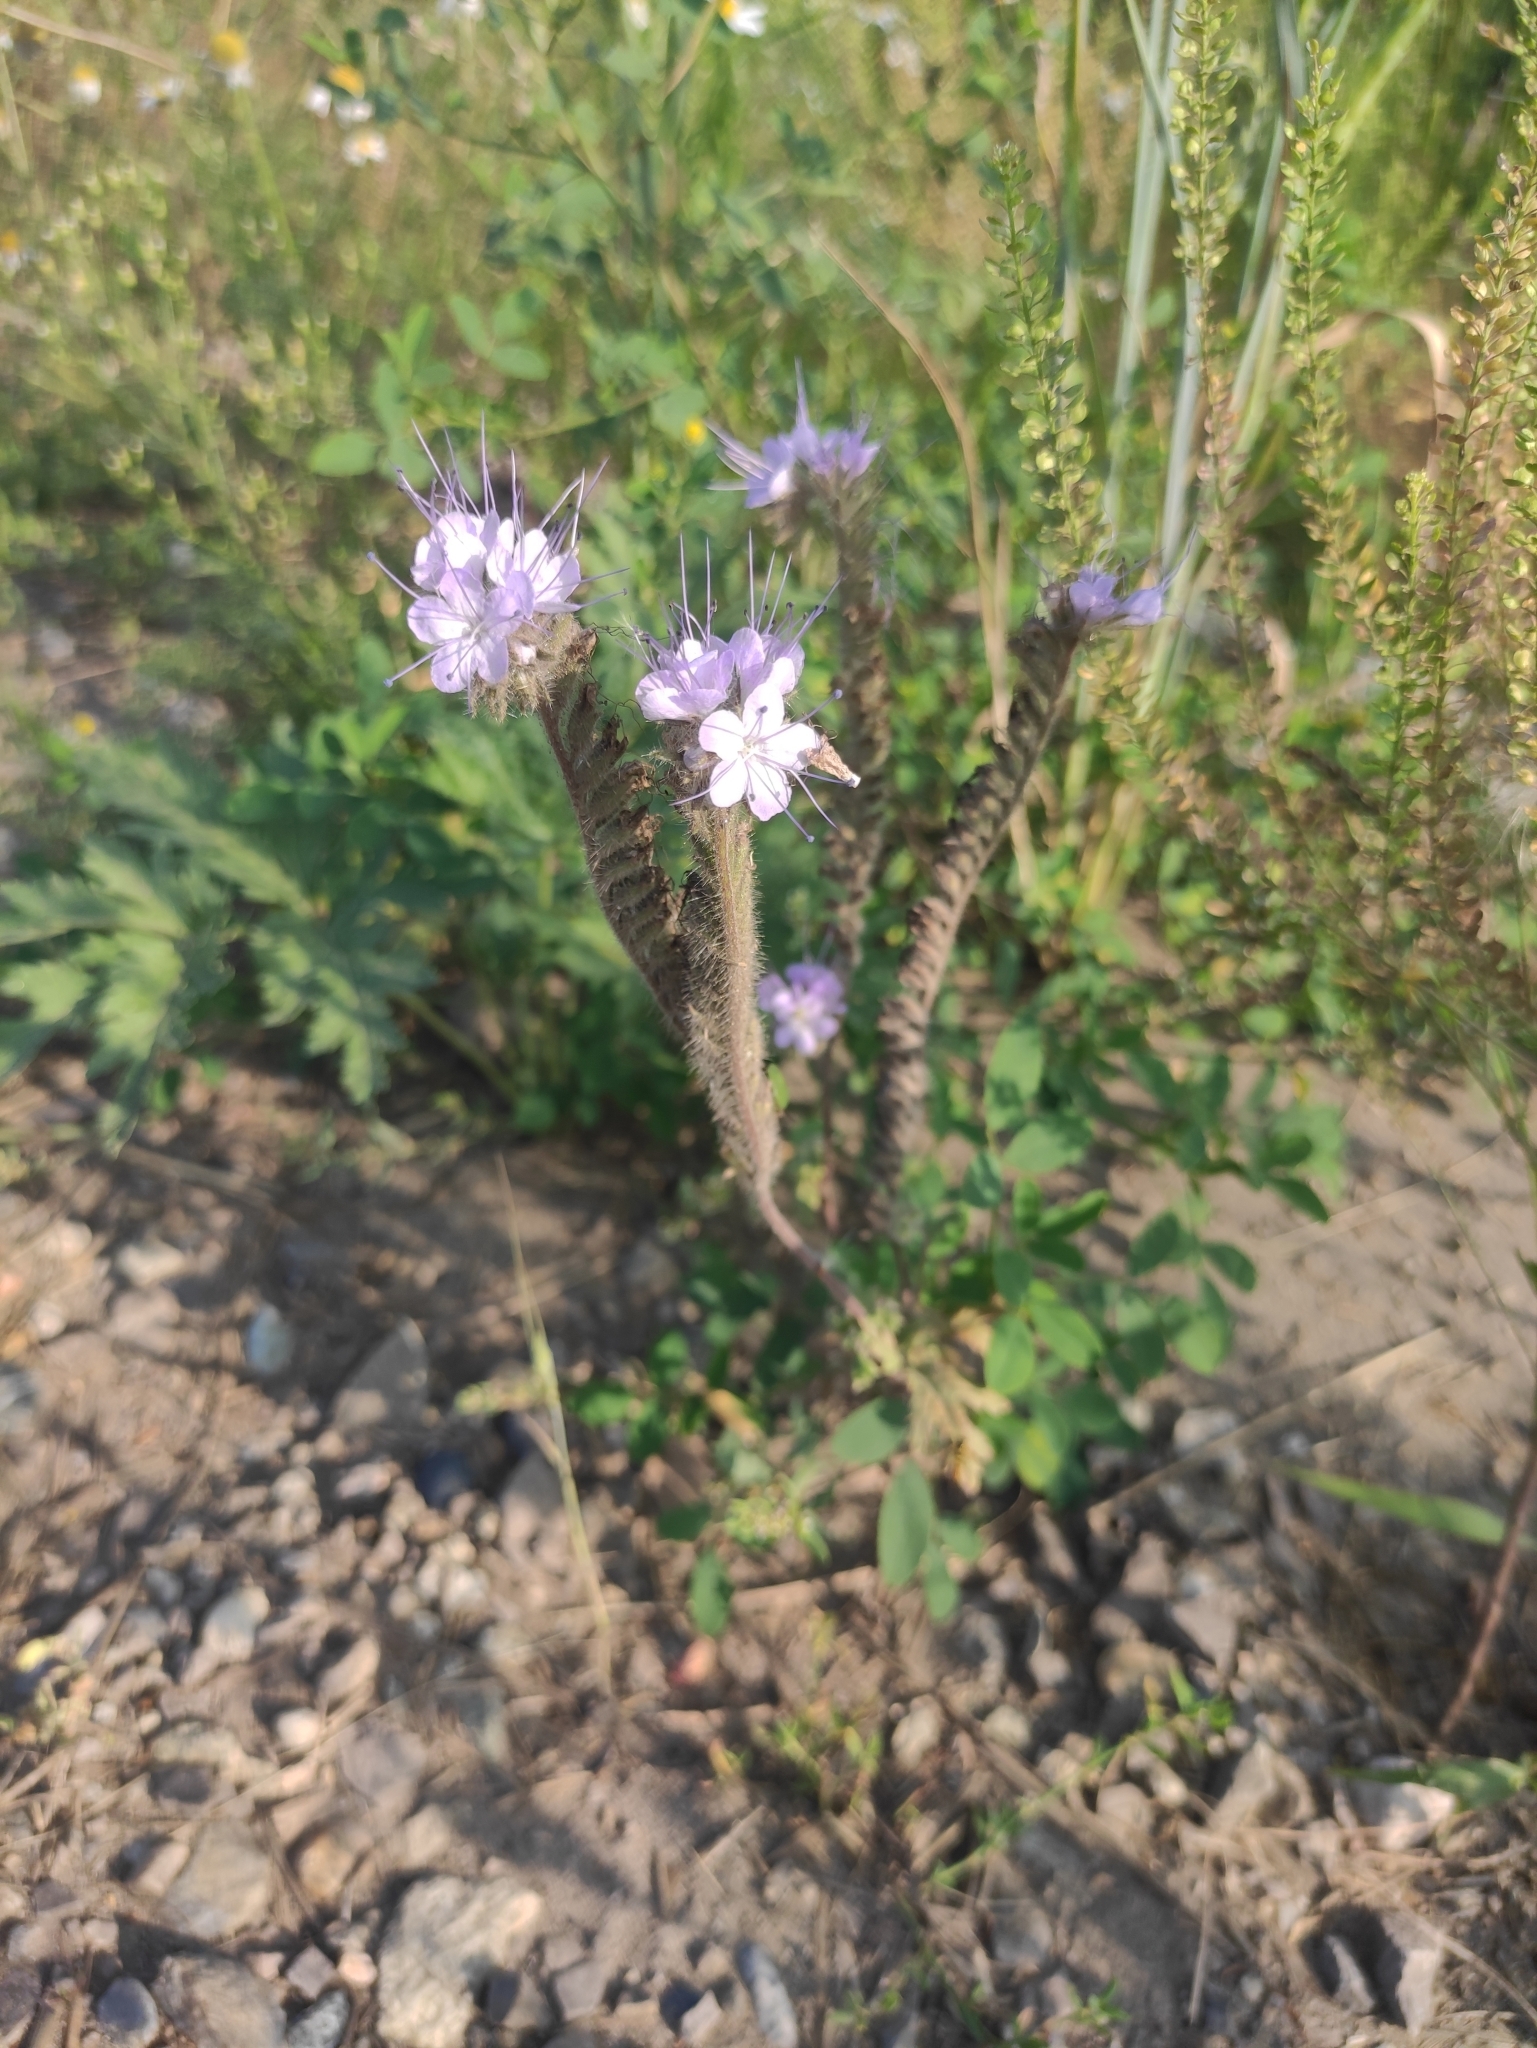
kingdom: Plantae
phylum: Tracheophyta
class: Magnoliopsida
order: Boraginales
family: Hydrophyllaceae
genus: Phacelia
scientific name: Phacelia tanacetifolia
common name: Phacelia
